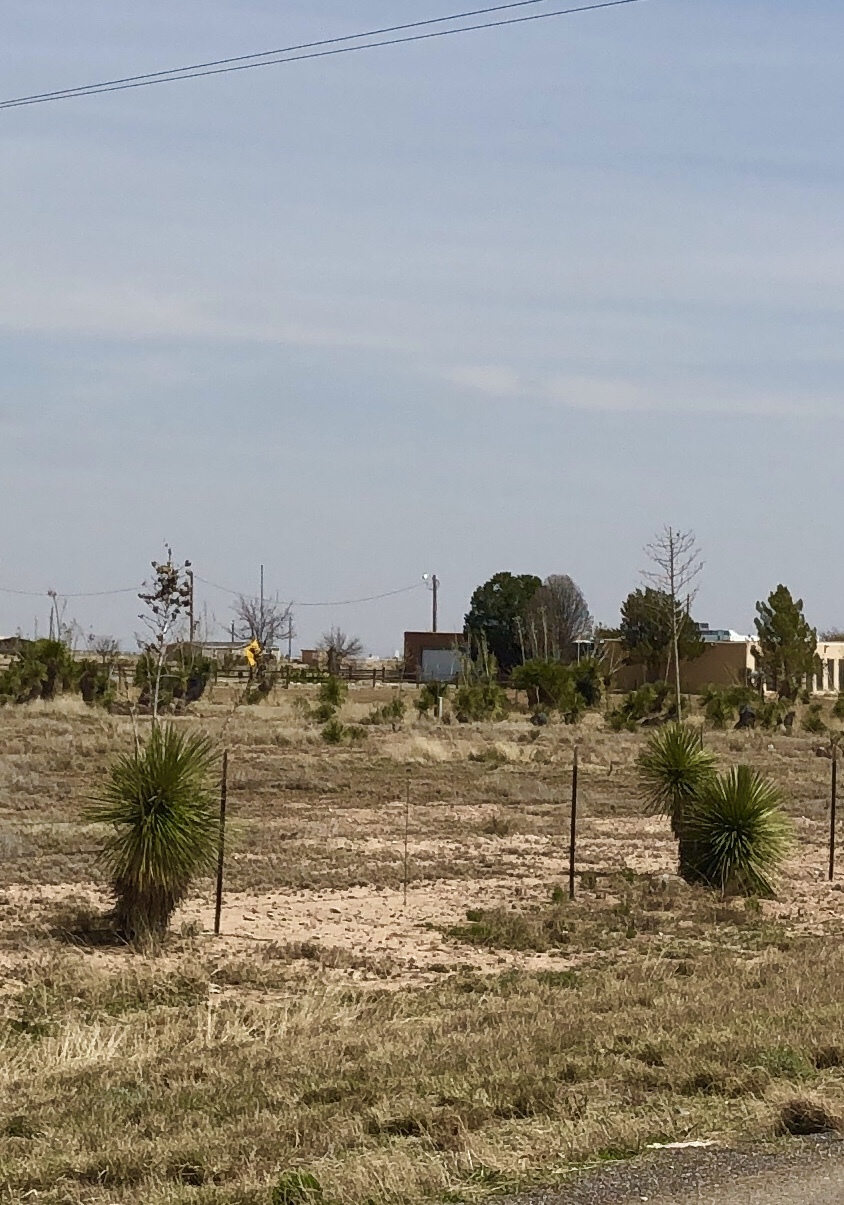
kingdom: Plantae
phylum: Tracheophyta
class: Liliopsida
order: Asparagales
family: Asparagaceae
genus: Yucca
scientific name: Yucca elata
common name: Palmella
